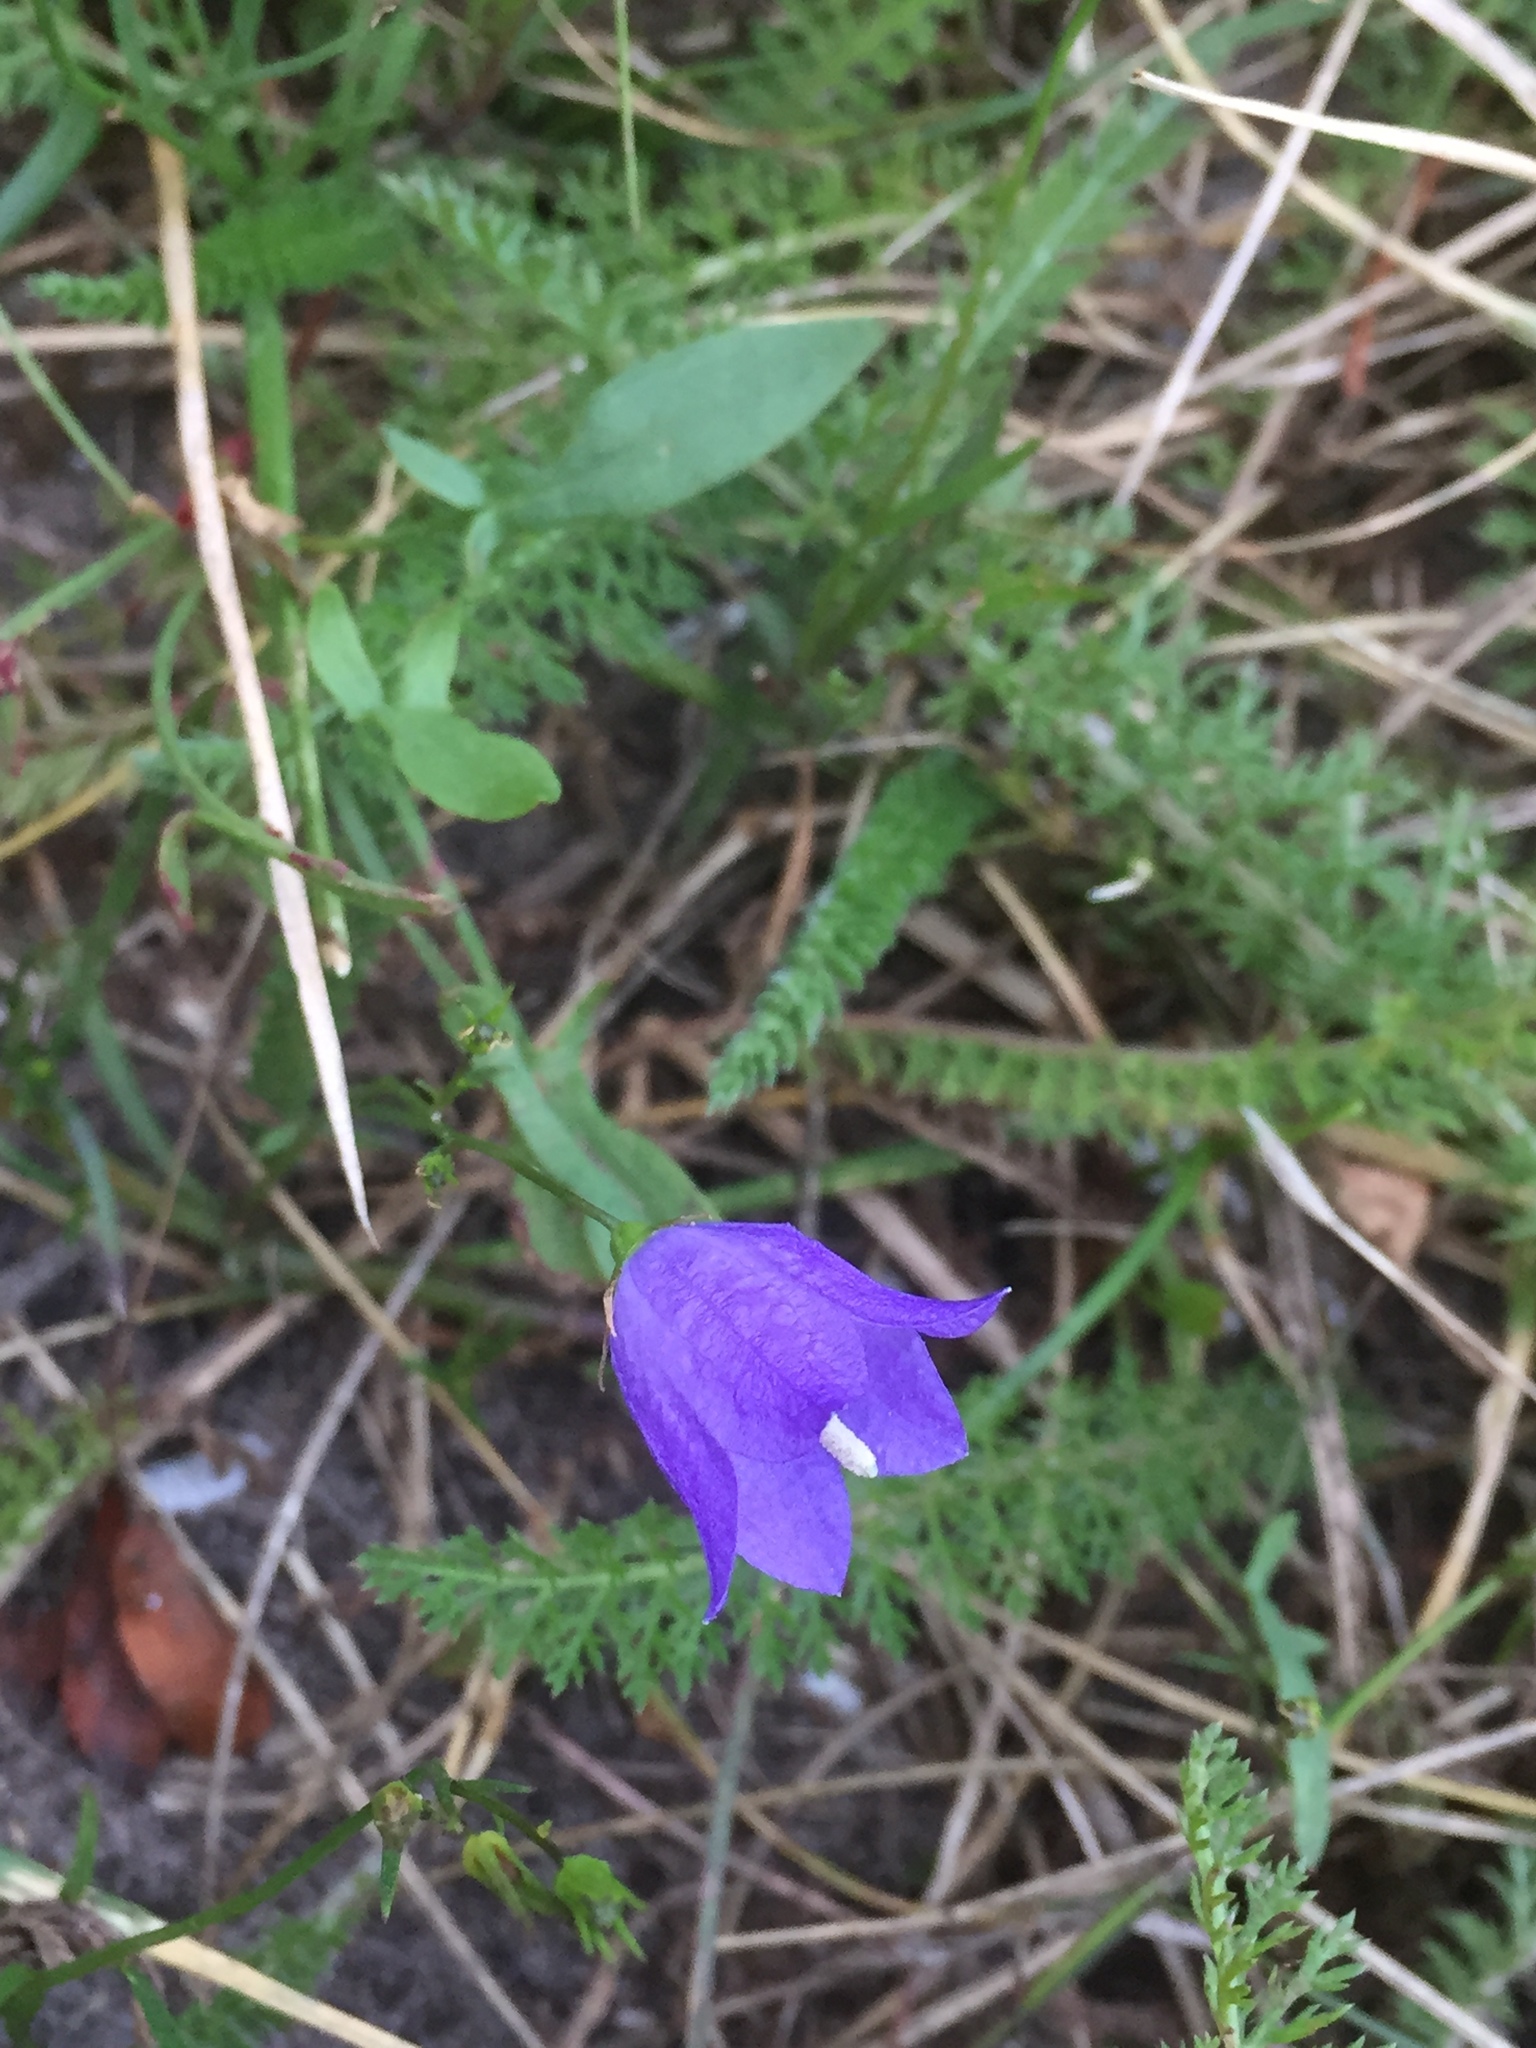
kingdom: Plantae
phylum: Tracheophyta
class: Magnoliopsida
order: Asterales
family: Campanulaceae
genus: Campanula
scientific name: Campanula rotundifolia
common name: Harebell
